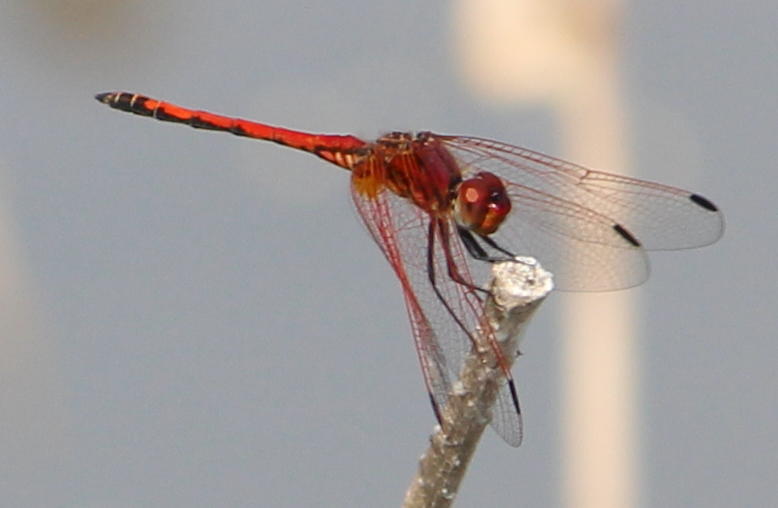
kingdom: Animalia
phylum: Arthropoda
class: Insecta
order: Odonata
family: Libellulidae
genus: Trithemis
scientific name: Trithemis arteriosa
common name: Red-veined dropwing
